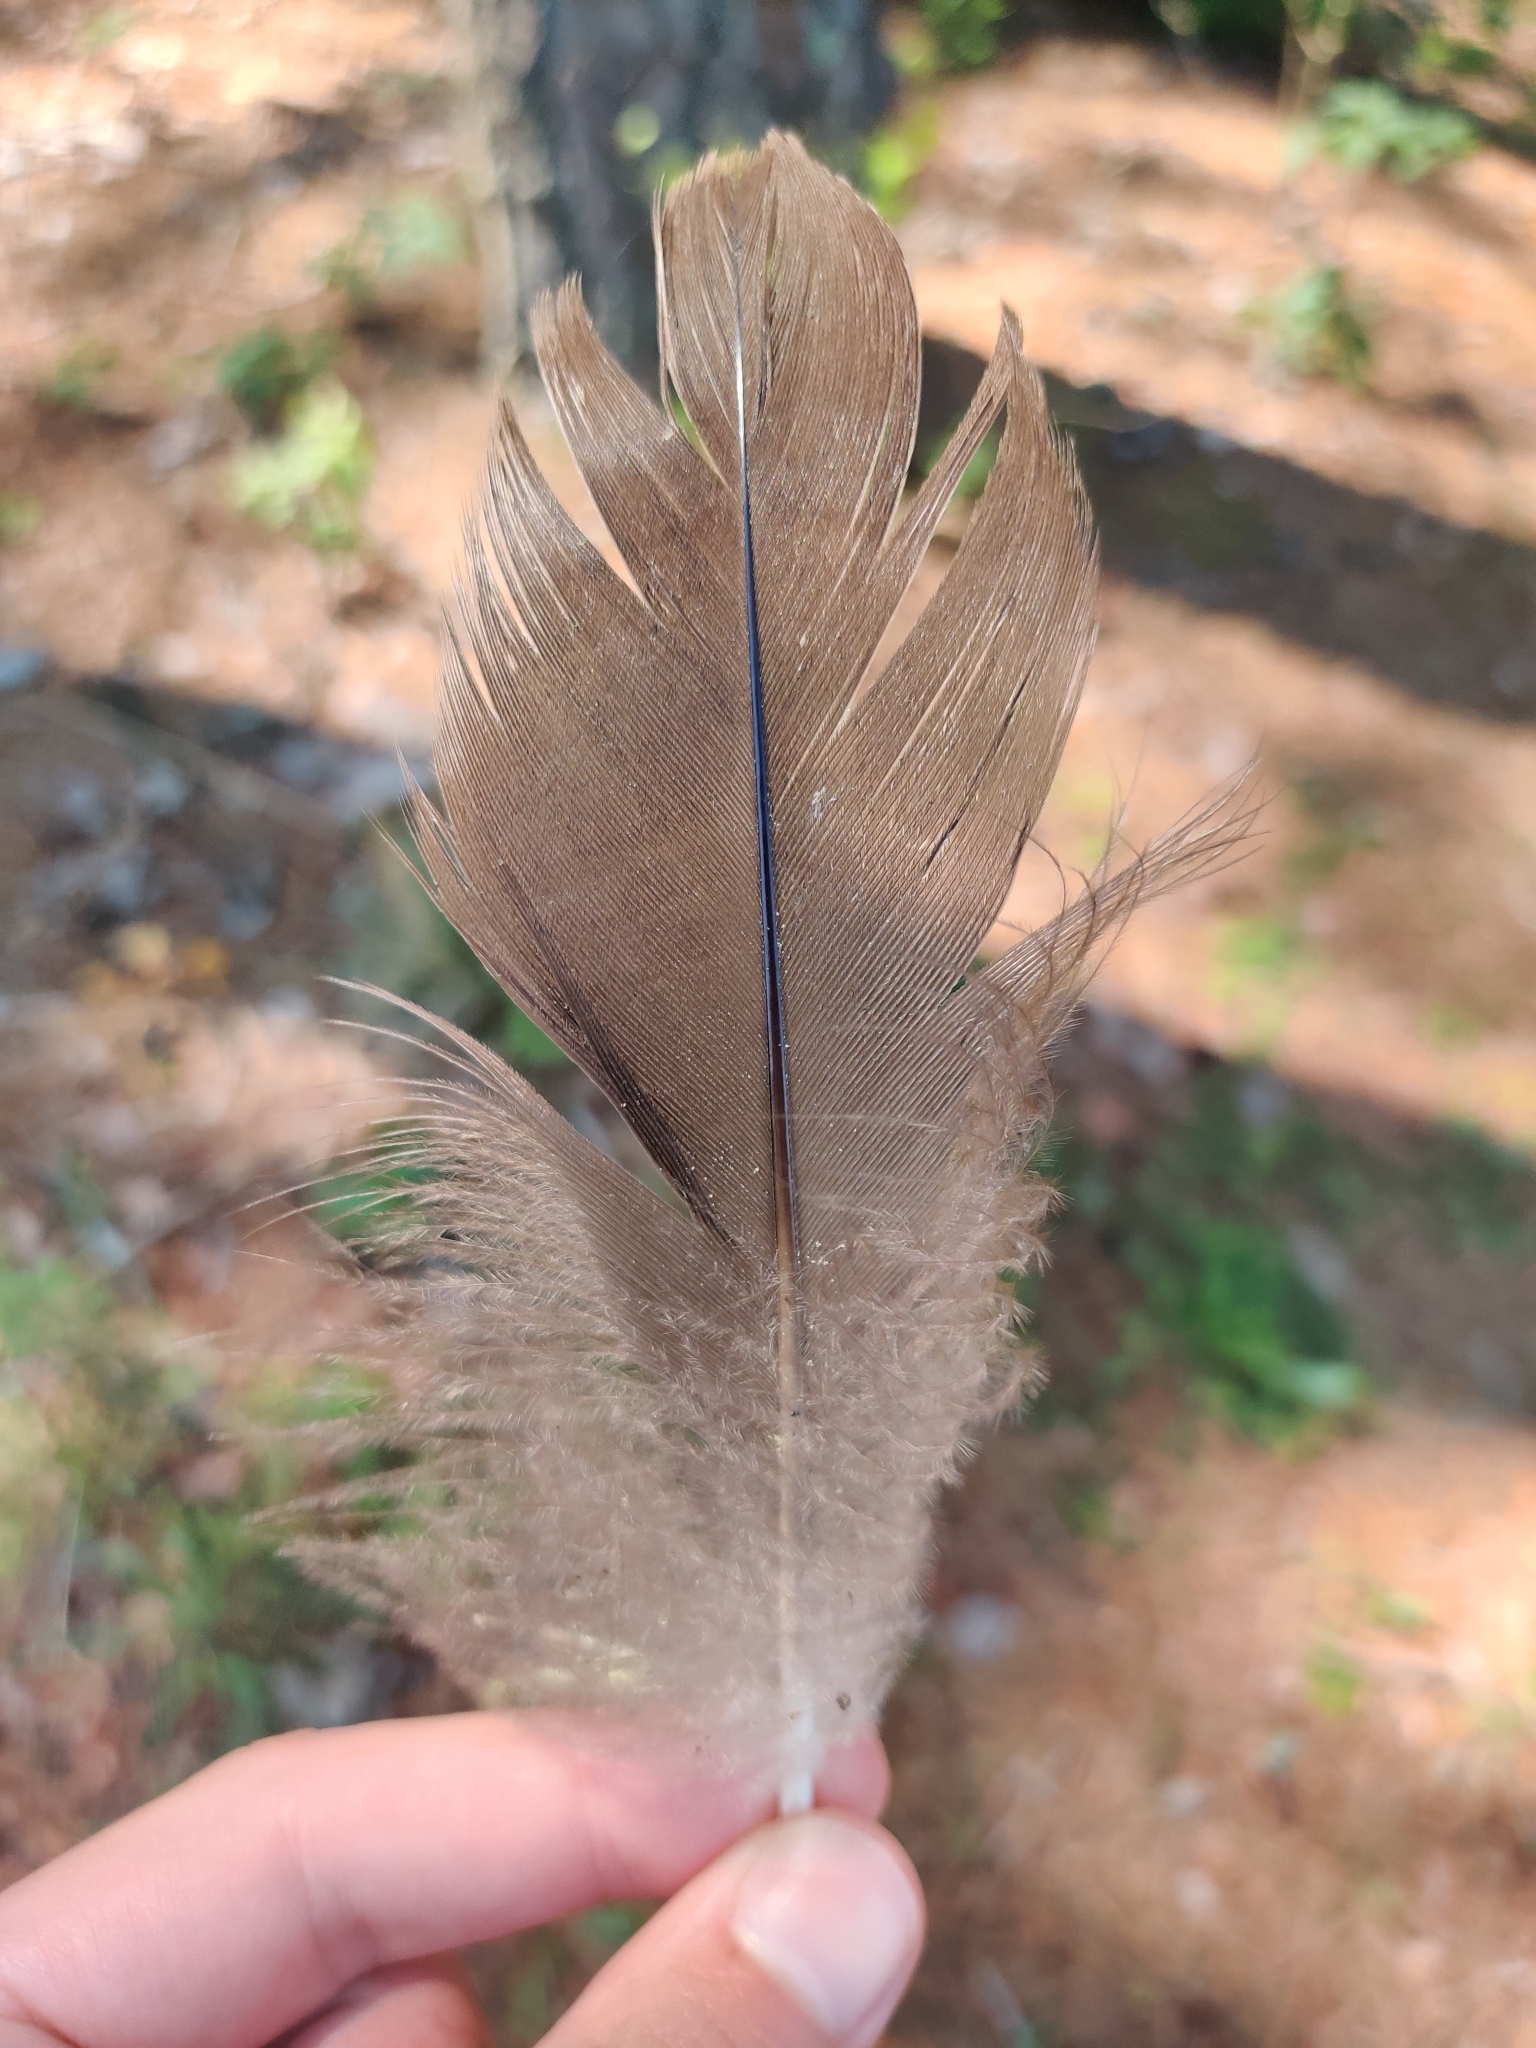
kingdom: Animalia
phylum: Chordata
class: Aves
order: Anseriformes
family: Anatidae
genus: Branta
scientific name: Branta canadensis
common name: Canada goose
